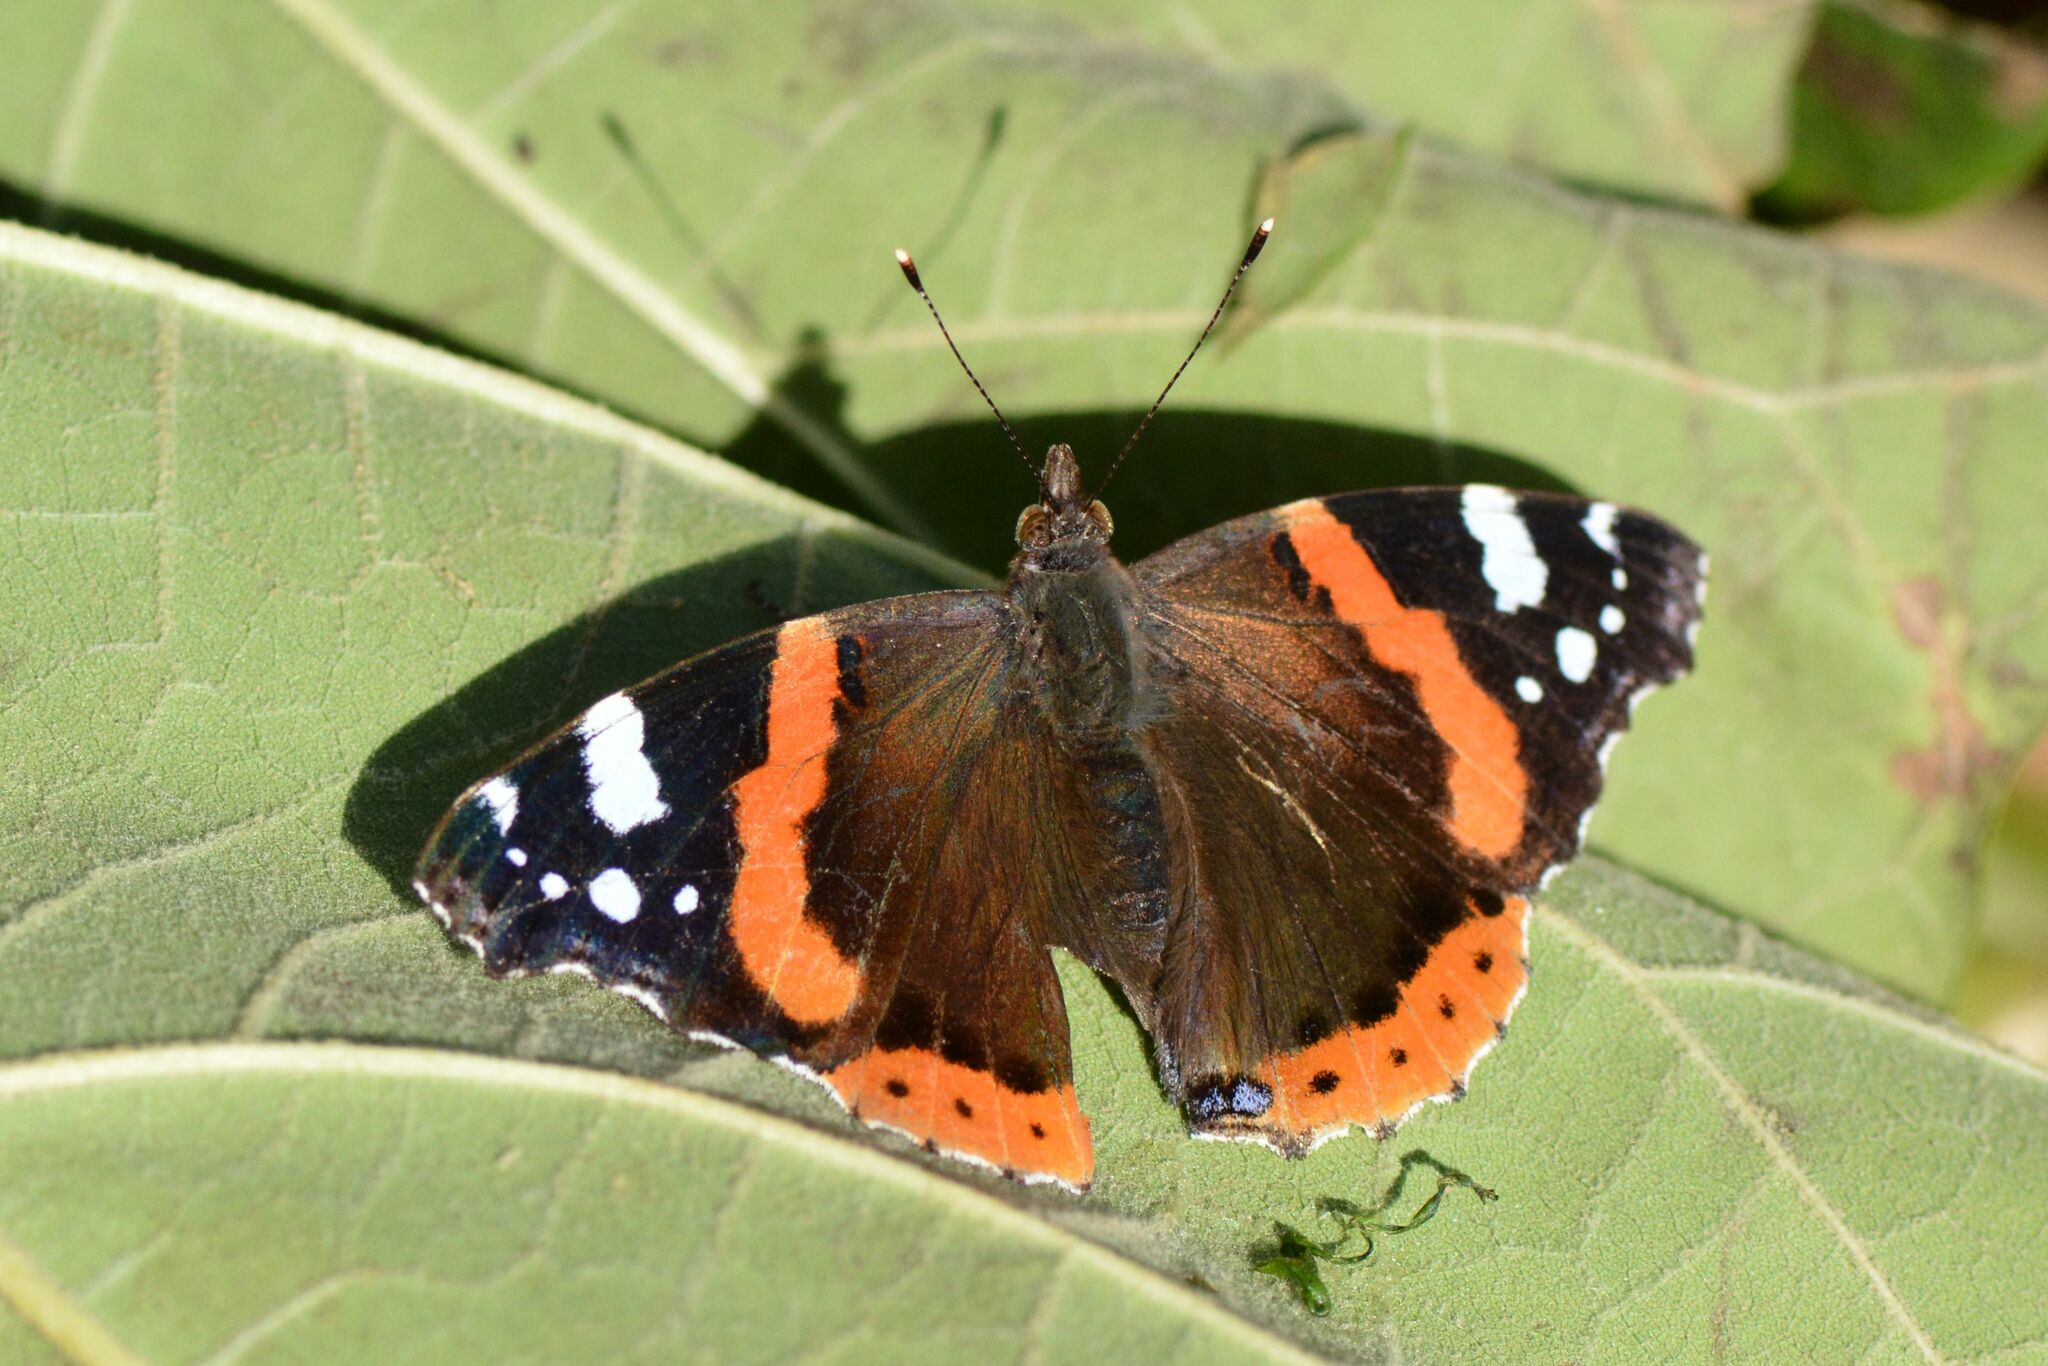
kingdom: Animalia
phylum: Arthropoda
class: Insecta
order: Lepidoptera
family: Nymphalidae
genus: Vanessa
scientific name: Vanessa atalanta
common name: Red admiral
